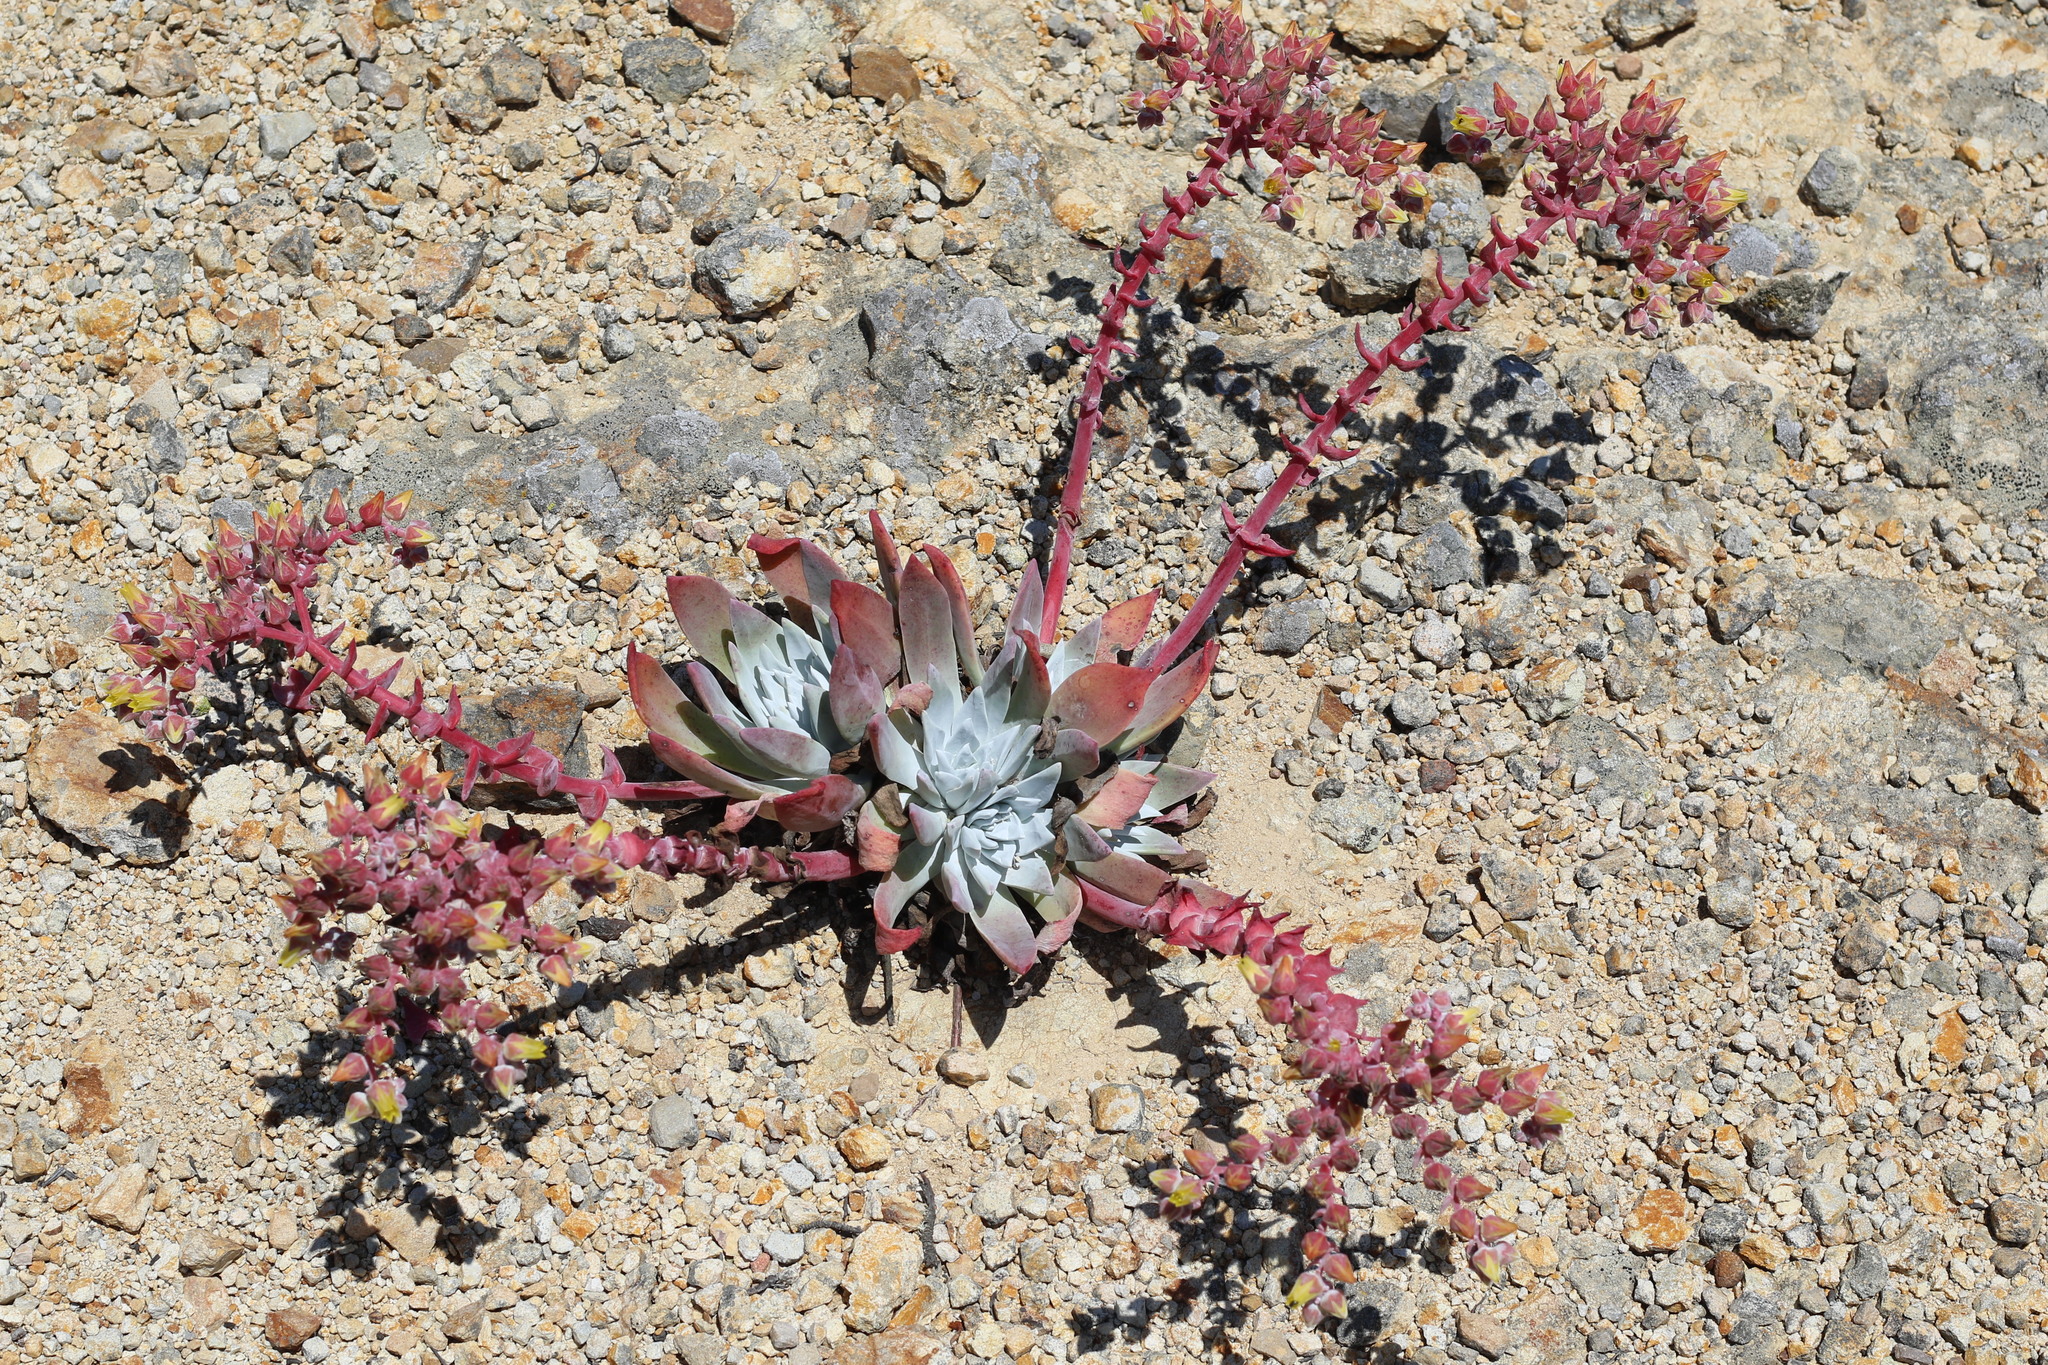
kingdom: Plantae
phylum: Tracheophyta
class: Magnoliopsida
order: Saxifragales
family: Crassulaceae
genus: Dudleya
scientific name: Dudleya greenei
